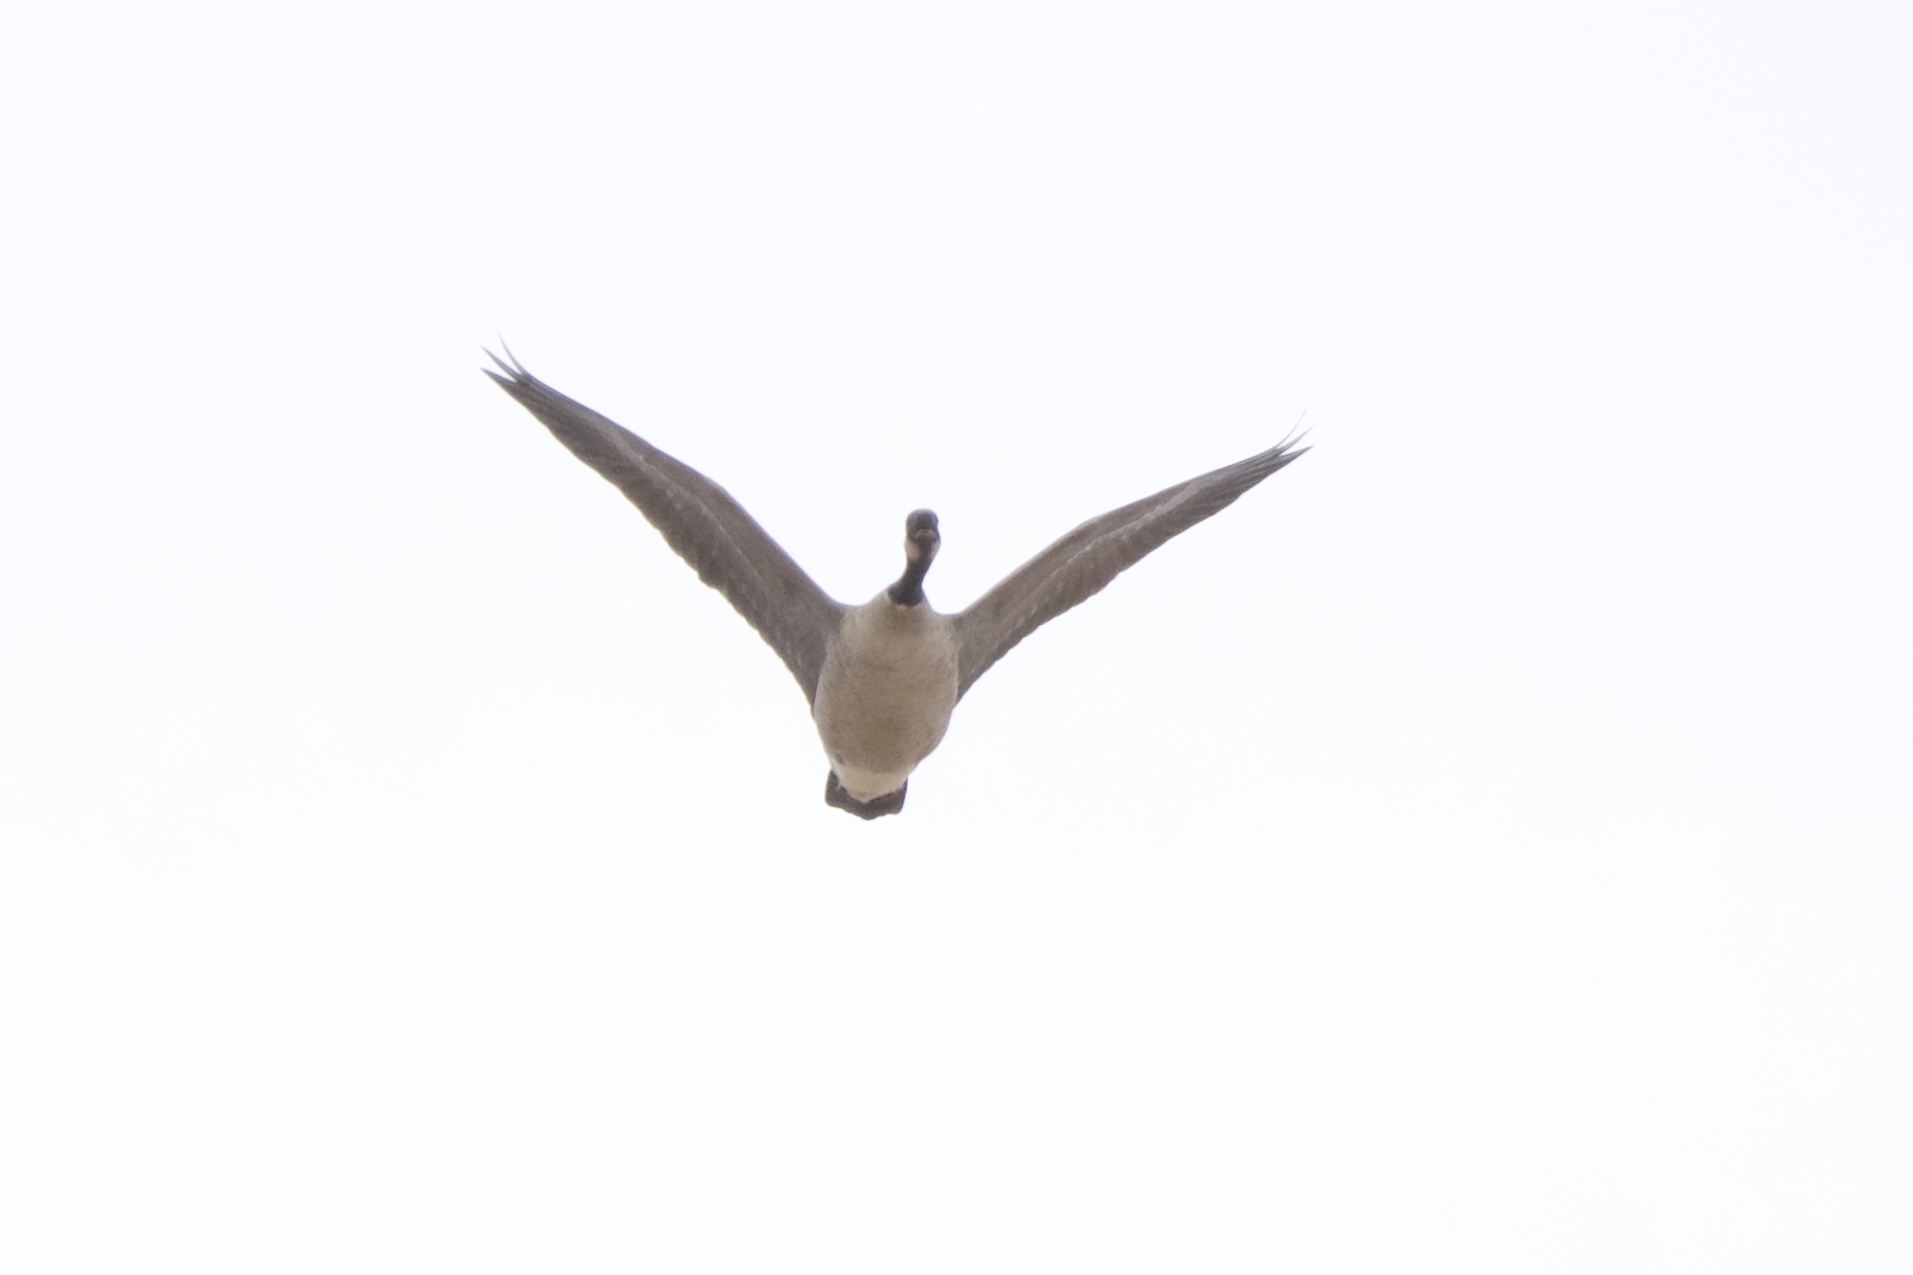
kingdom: Animalia
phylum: Chordata
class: Aves
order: Anseriformes
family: Anatidae
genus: Branta
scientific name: Branta canadensis
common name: Canada goose
